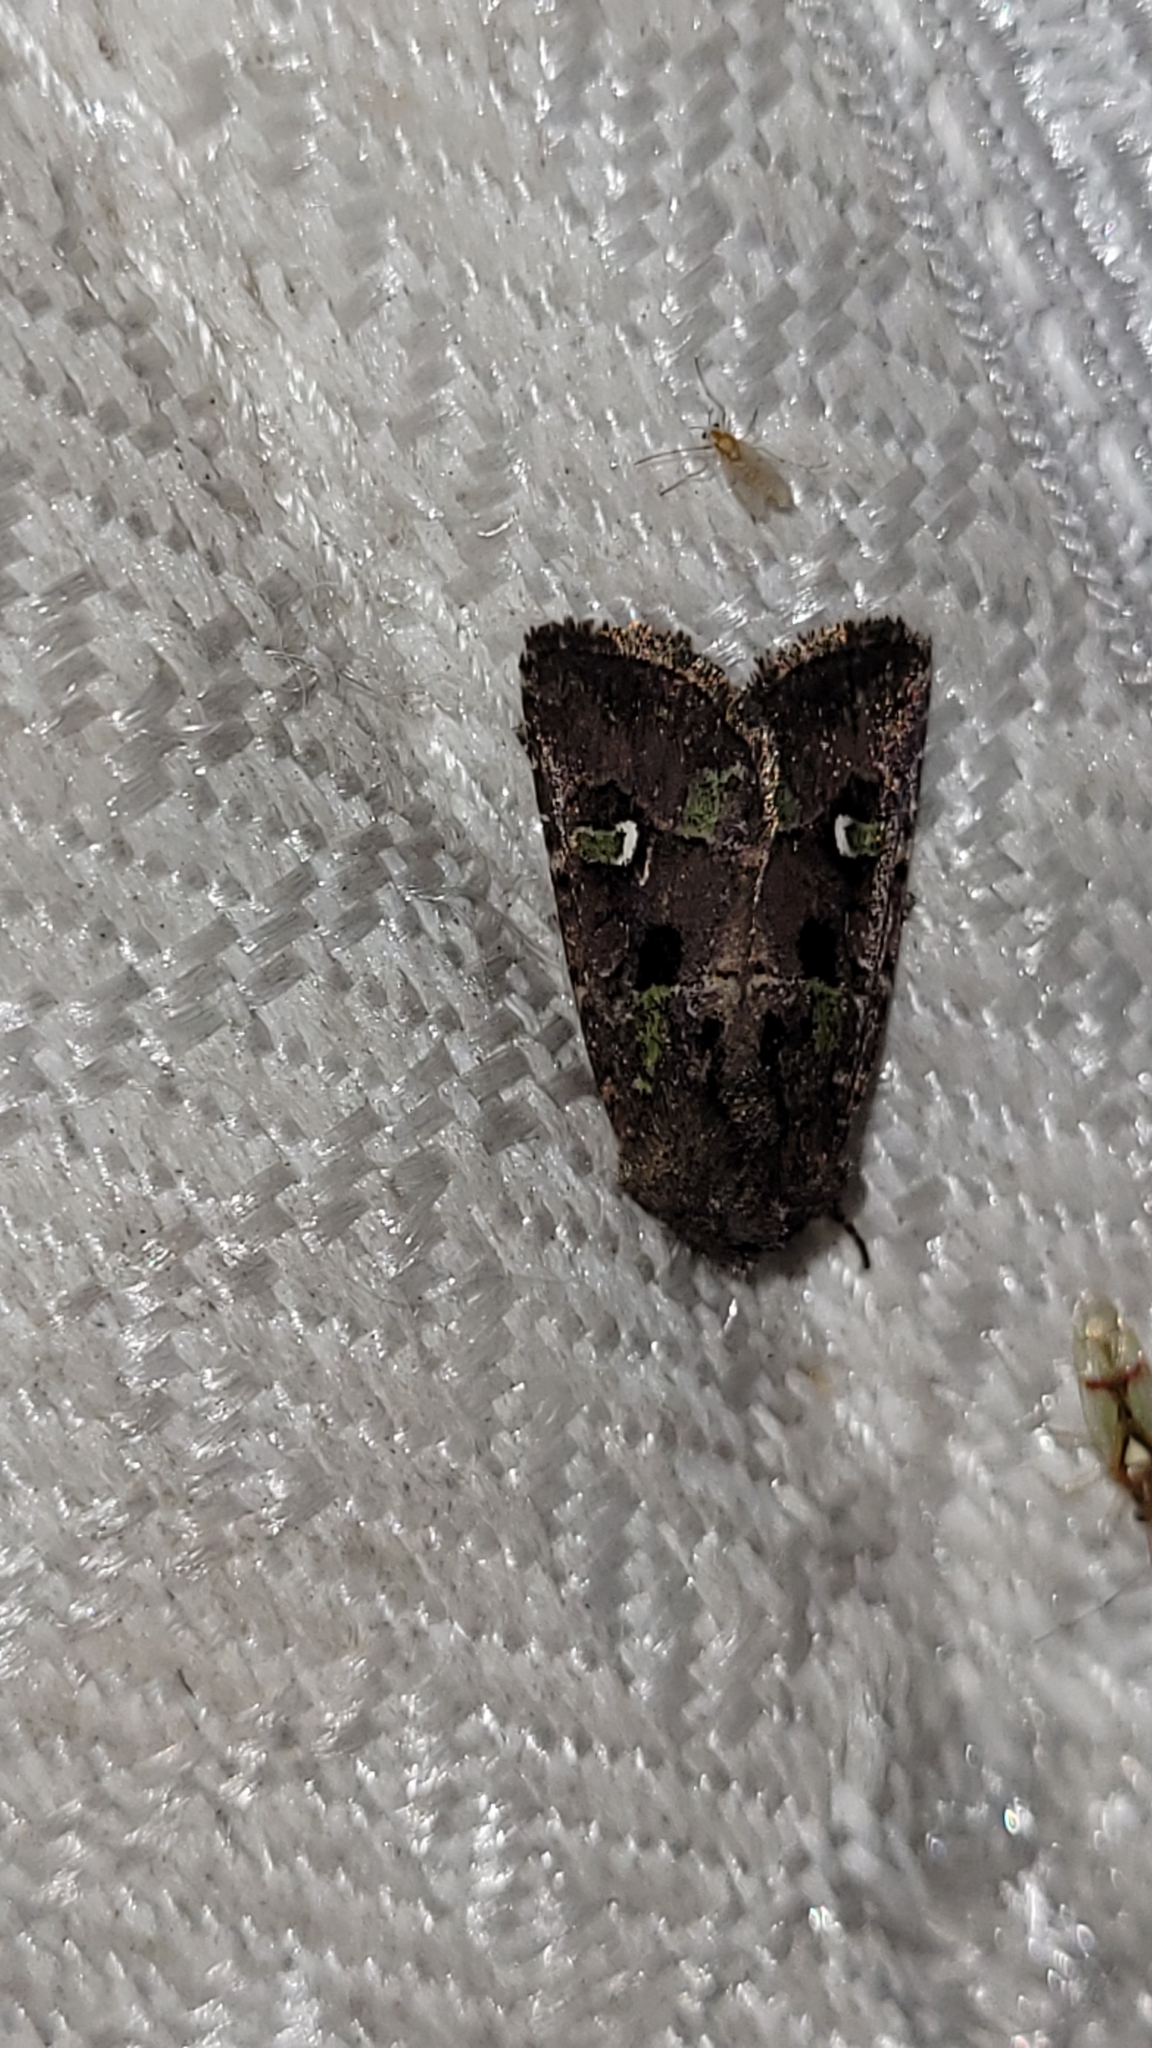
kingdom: Animalia
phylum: Arthropoda
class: Insecta
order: Lepidoptera
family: Noctuidae
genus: Lacinipolia
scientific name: Lacinipolia renigera
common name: Kidney-spotted minor
